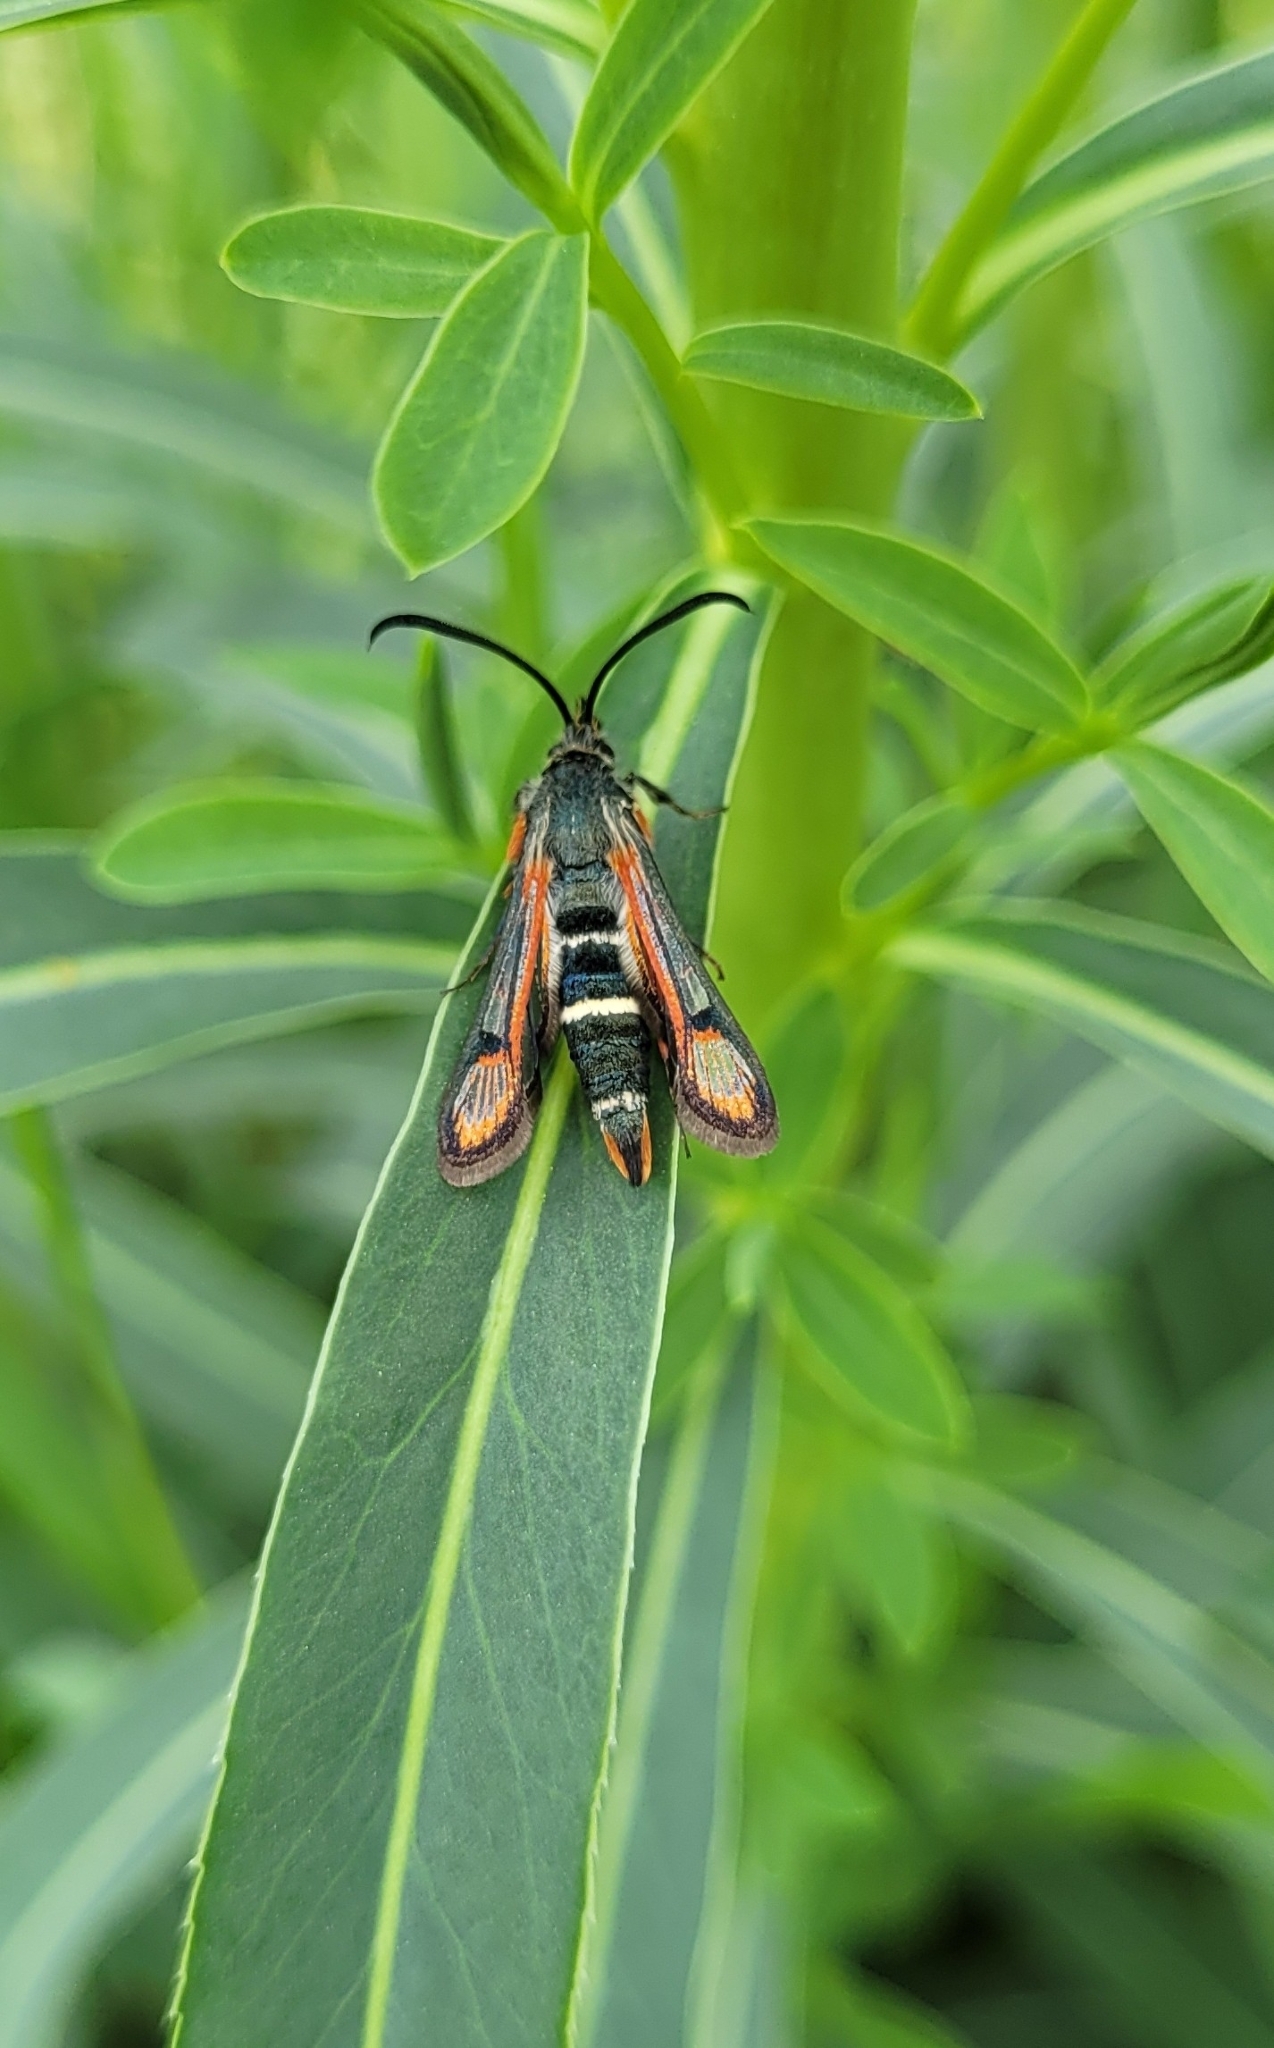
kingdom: Animalia
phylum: Arthropoda
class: Insecta
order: Lepidoptera
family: Sesiidae
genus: Bembecia
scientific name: Bembecia viguraea
